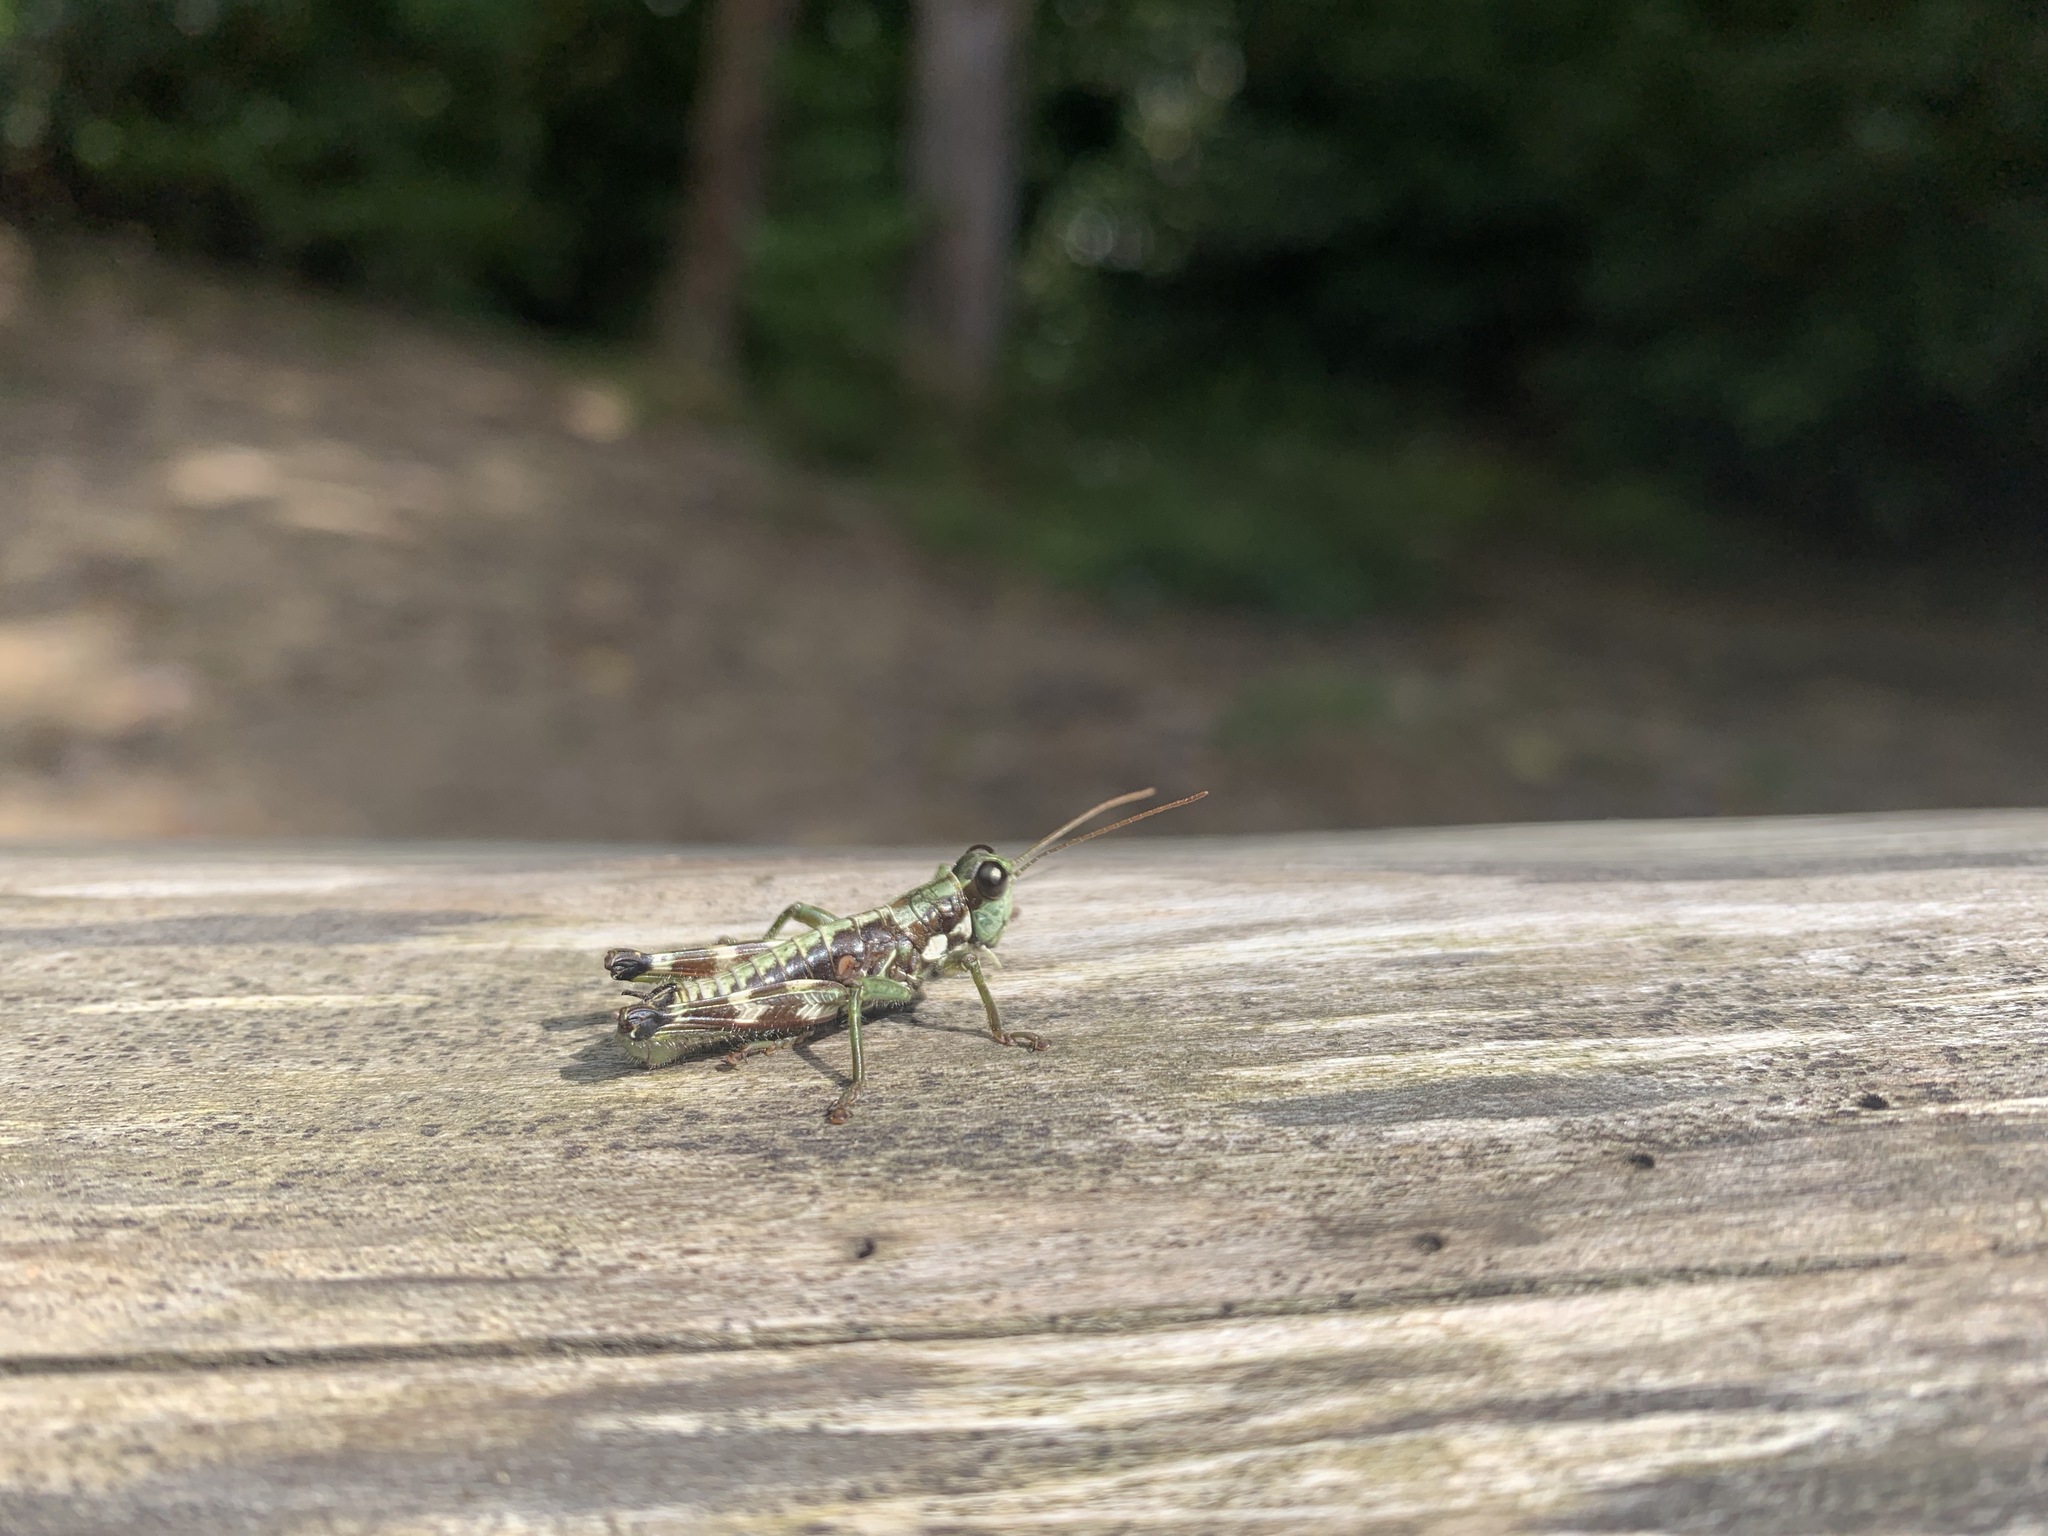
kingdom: Animalia
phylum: Arthropoda
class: Insecta
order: Orthoptera
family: Acrididae
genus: Booneacris
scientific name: Booneacris glacialis
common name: Wingless mountain grasshopper
